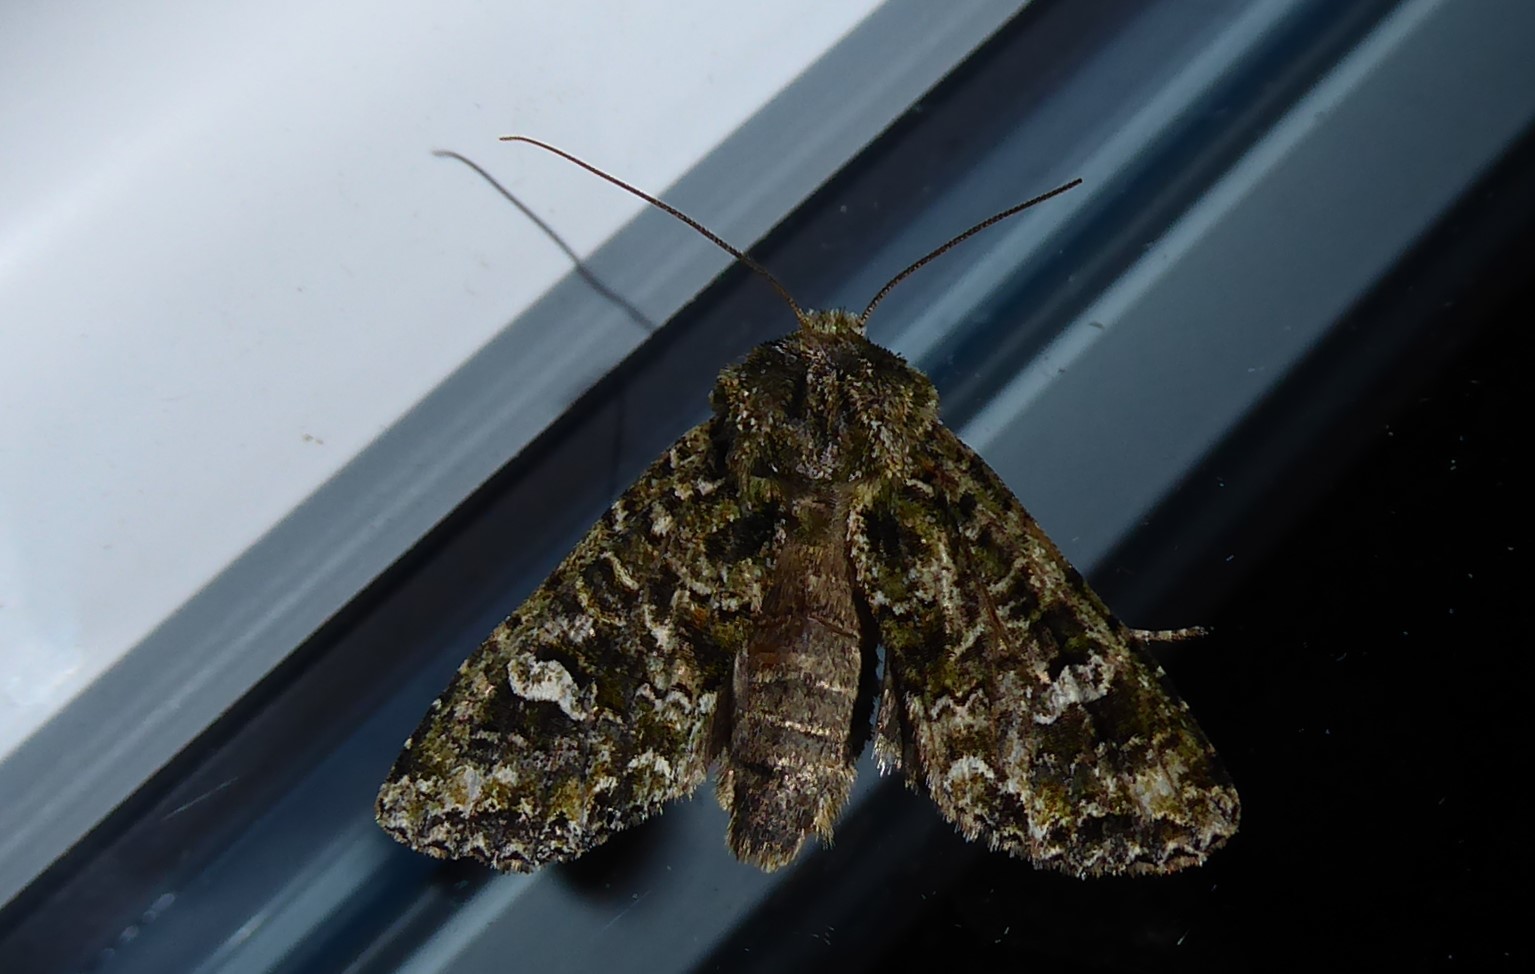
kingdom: Animalia
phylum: Arthropoda
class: Insecta
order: Lepidoptera
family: Noctuidae
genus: Ichneutica
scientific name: Ichneutica
